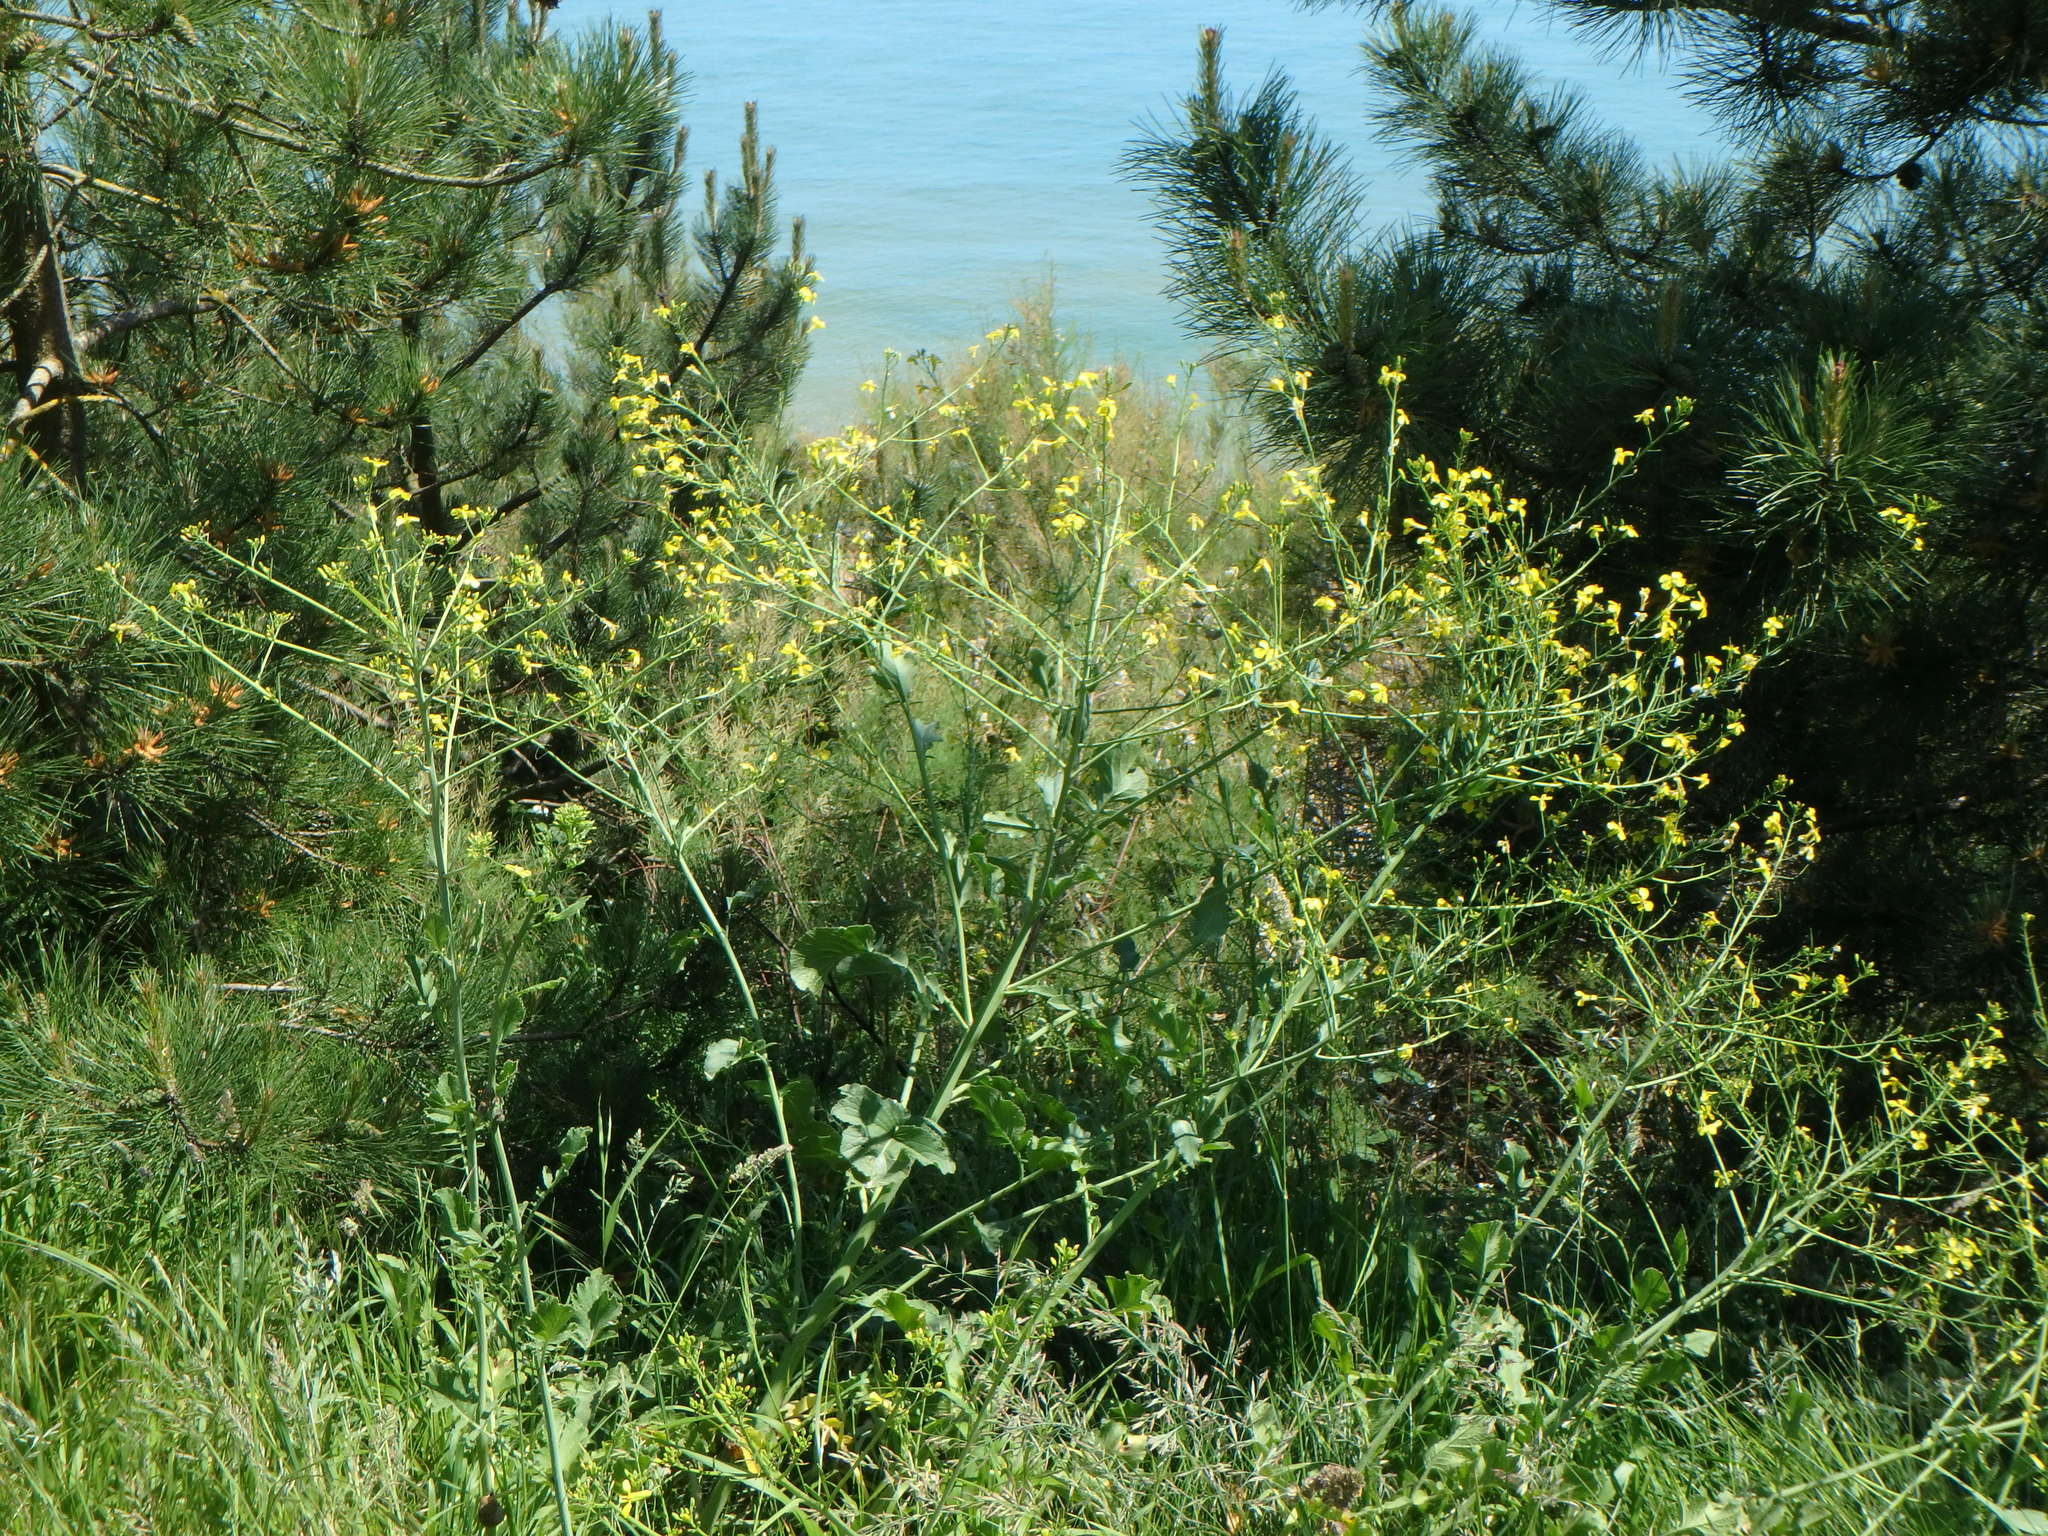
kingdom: Plantae
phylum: Tracheophyta
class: Magnoliopsida
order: Brassicales
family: Brassicaceae
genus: Raphanus
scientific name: Raphanus raphanistrum
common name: Wild radish
